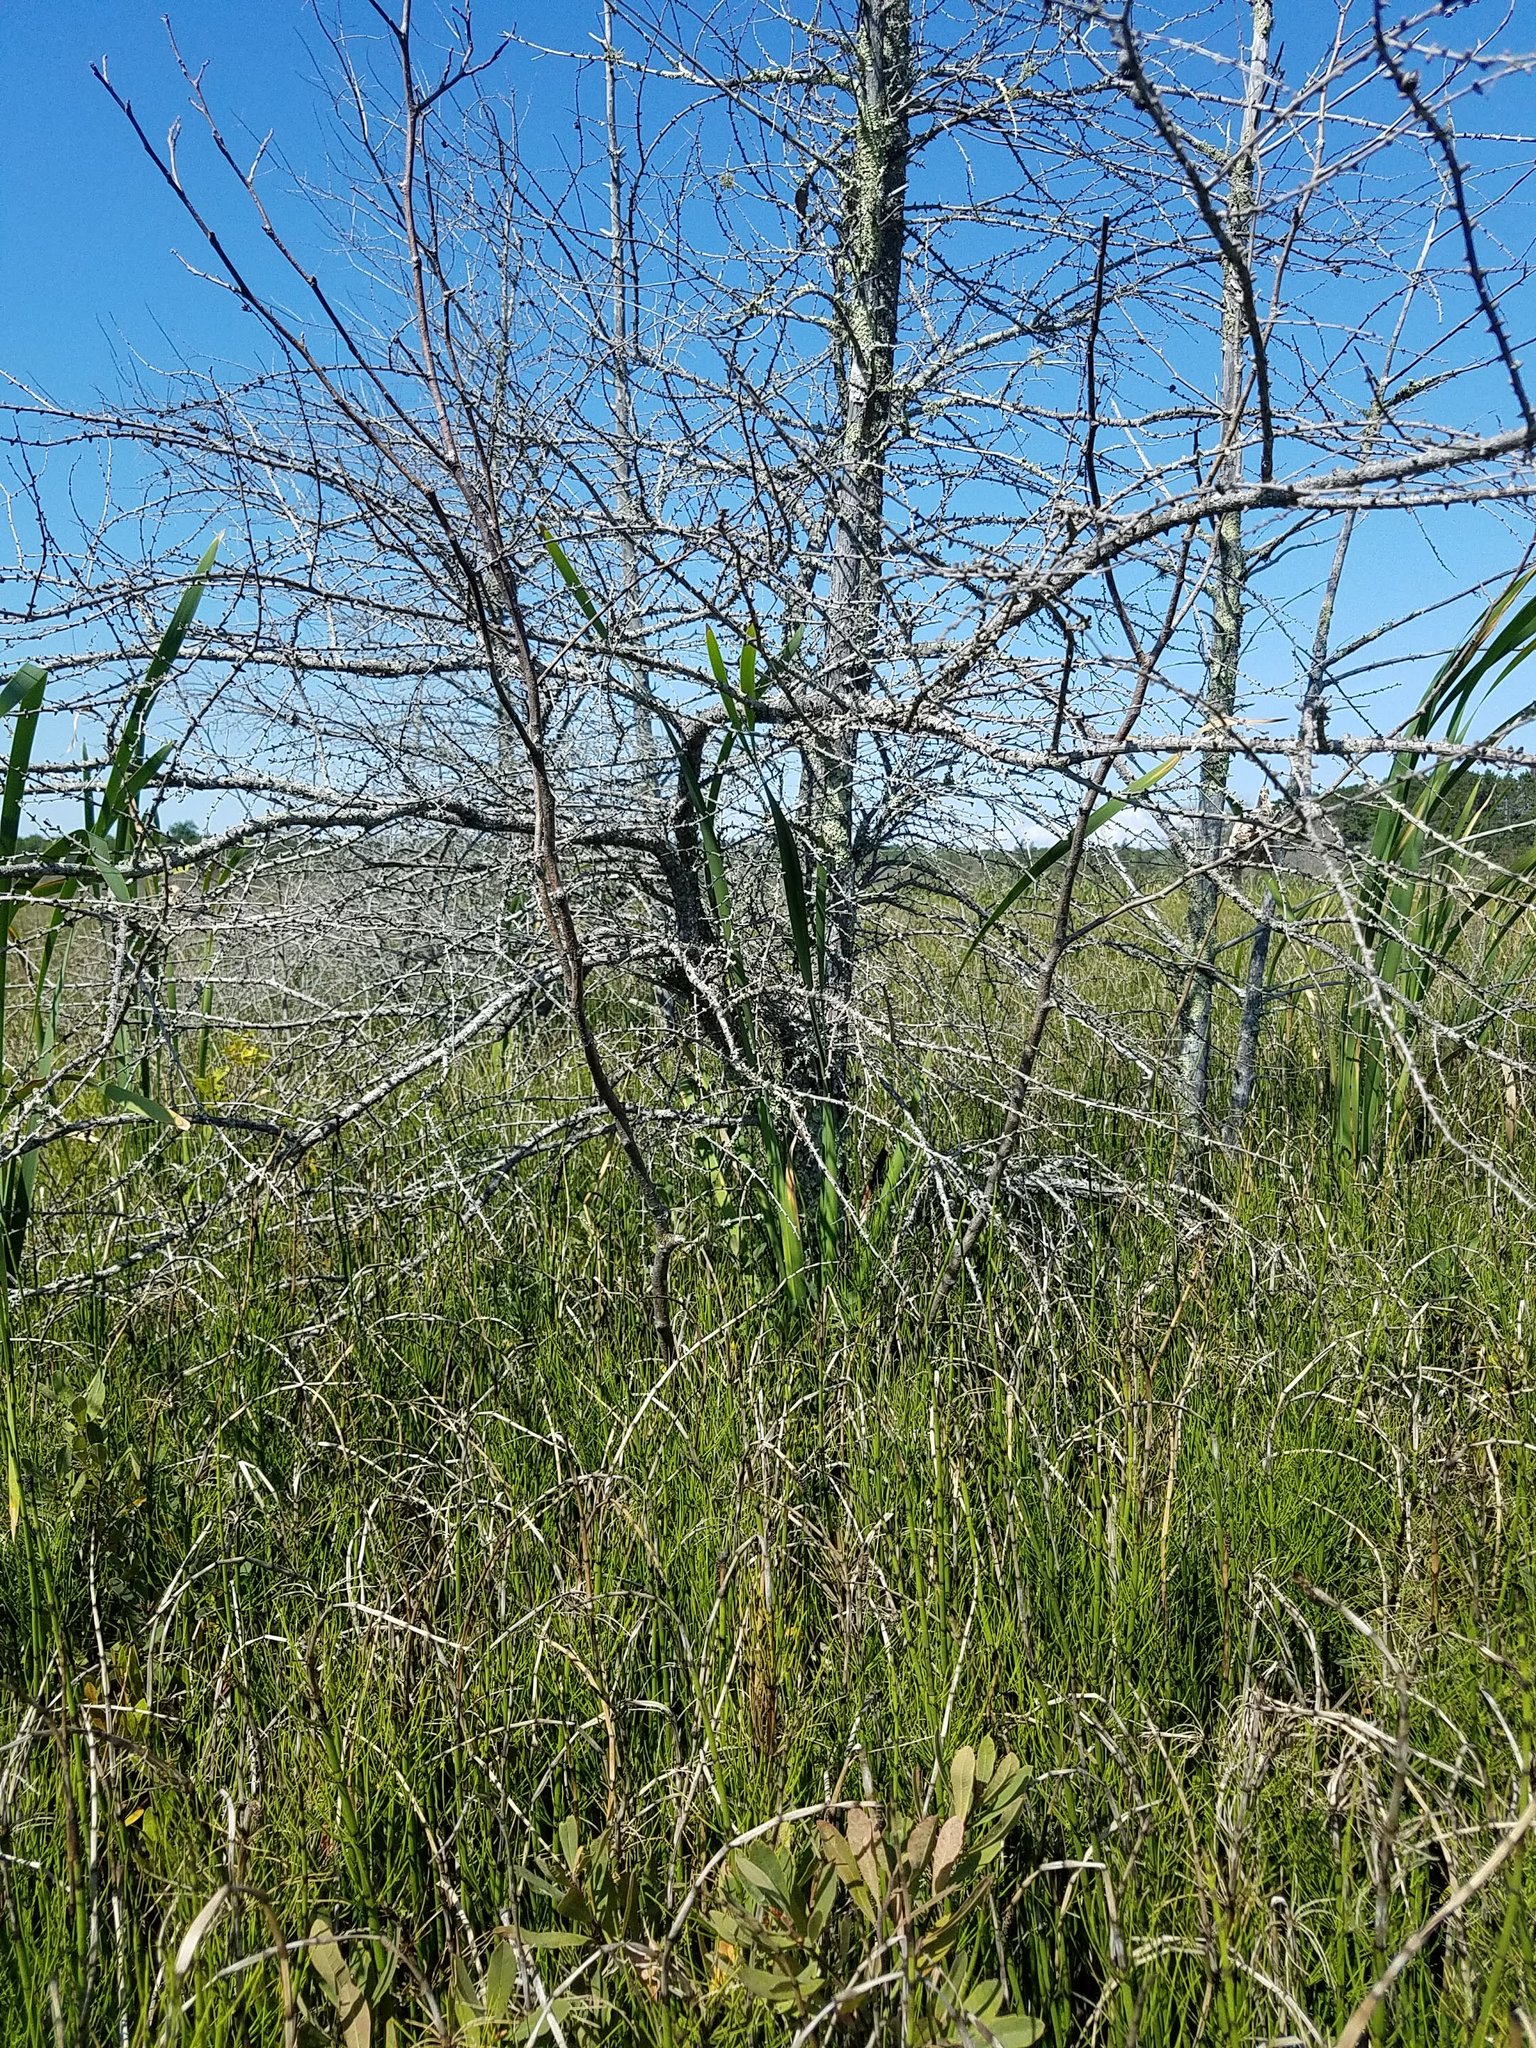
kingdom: Plantae
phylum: Tracheophyta
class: Pinopsida
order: Pinales
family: Pinaceae
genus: Larix
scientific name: Larix laricina
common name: American larch
